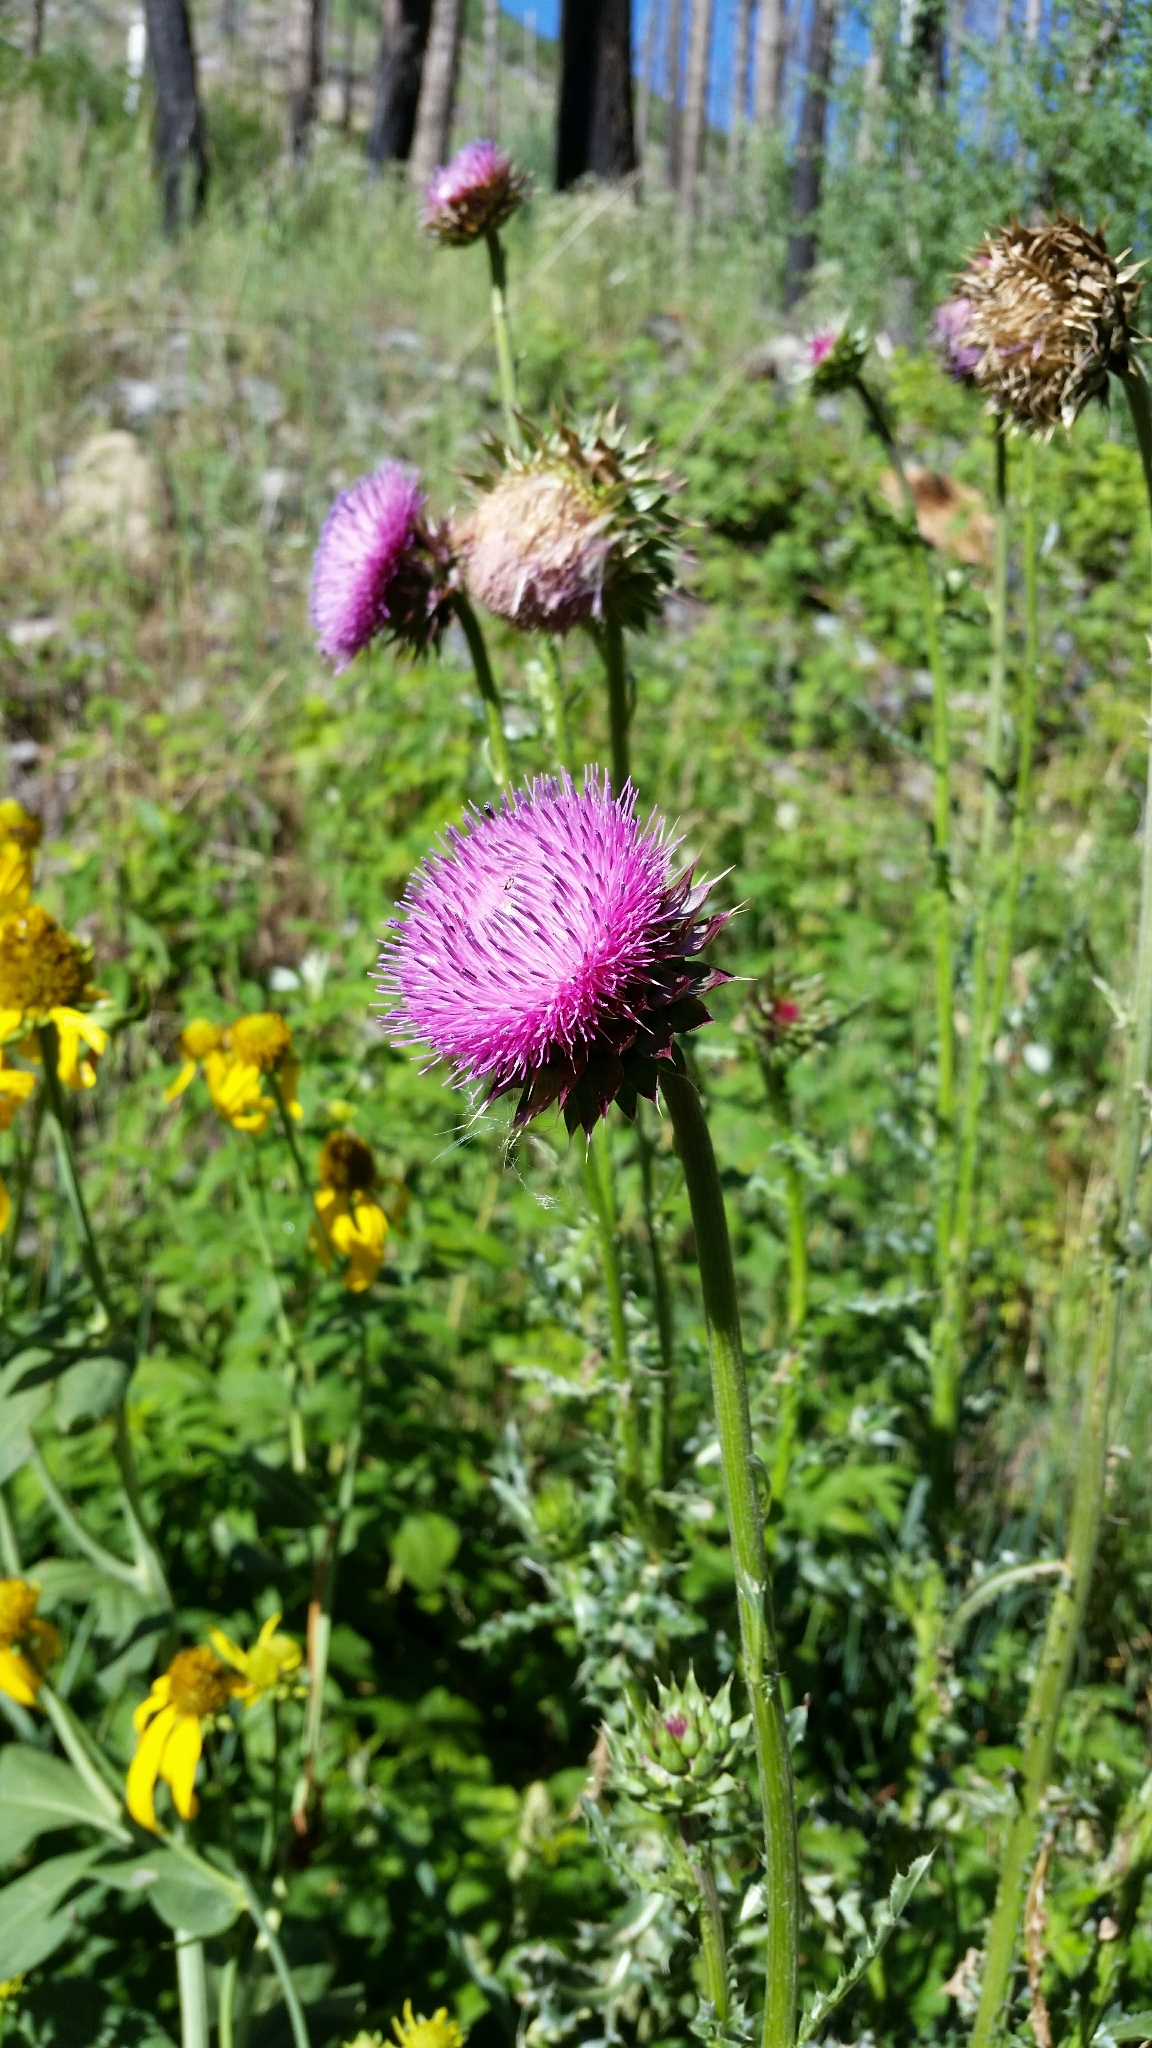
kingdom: Plantae
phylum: Tracheophyta
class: Magnoliopsida
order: Asterales
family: Asteraceae
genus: Carduus
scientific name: Carduus nutans
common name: Musk thistle
